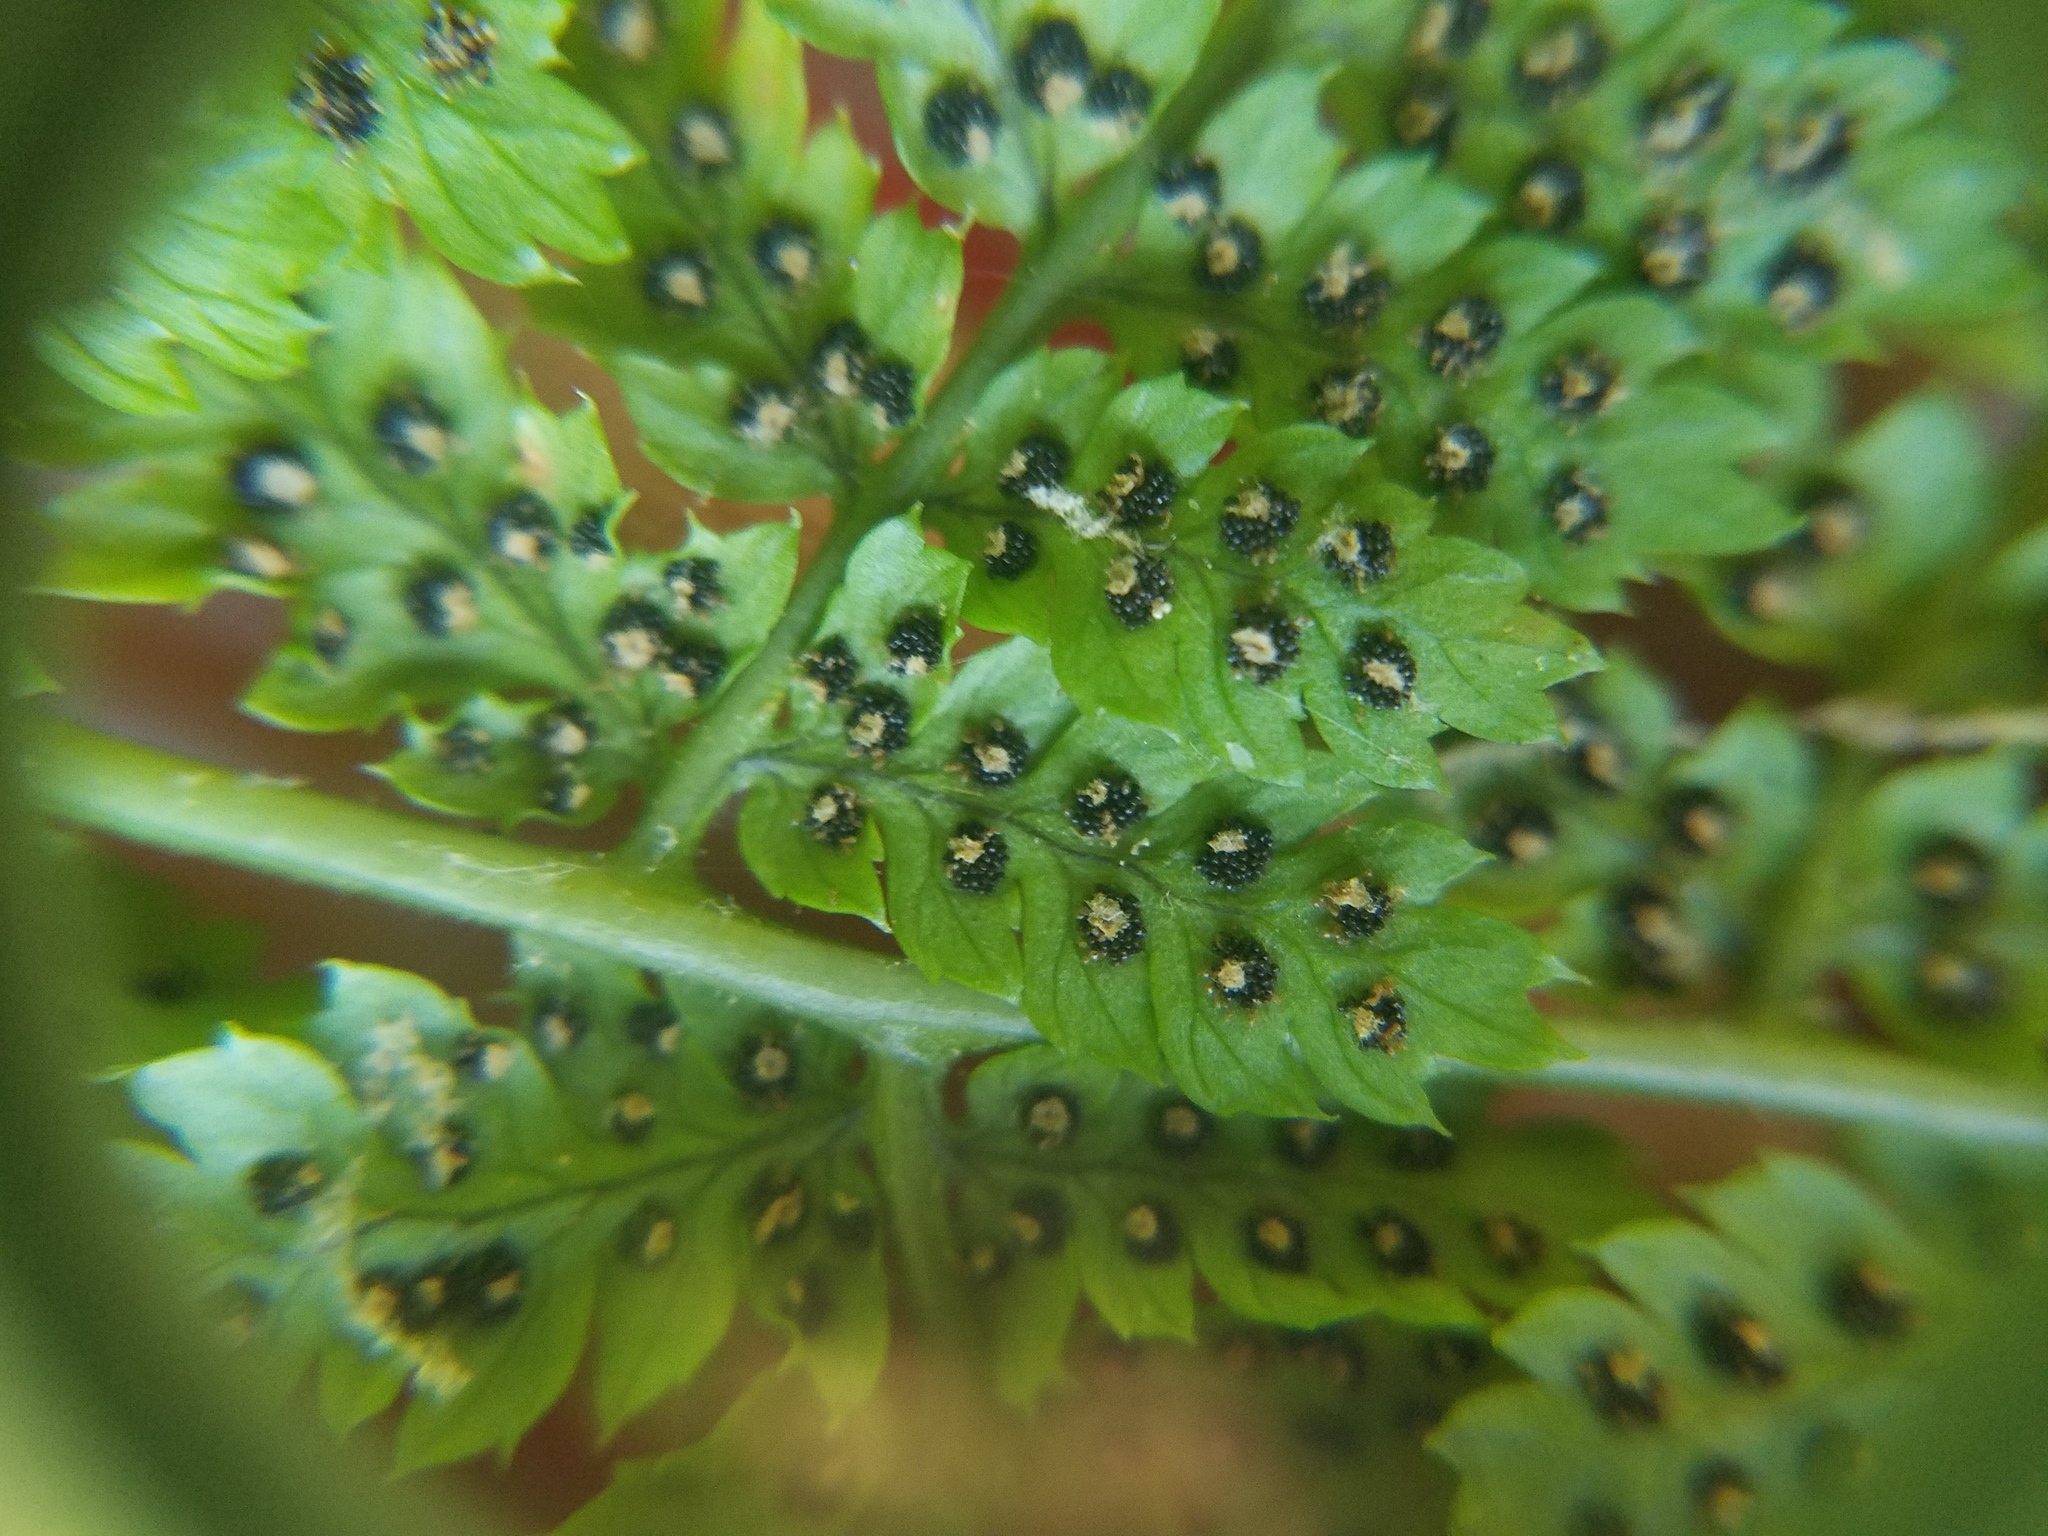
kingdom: Plantae
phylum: Tracheophyta
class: Polypodiopsida
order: Polypodiales
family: Dryopteridaceae
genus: Dryopteris
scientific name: Dryopteris intermedia
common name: Evergreen wood fern
